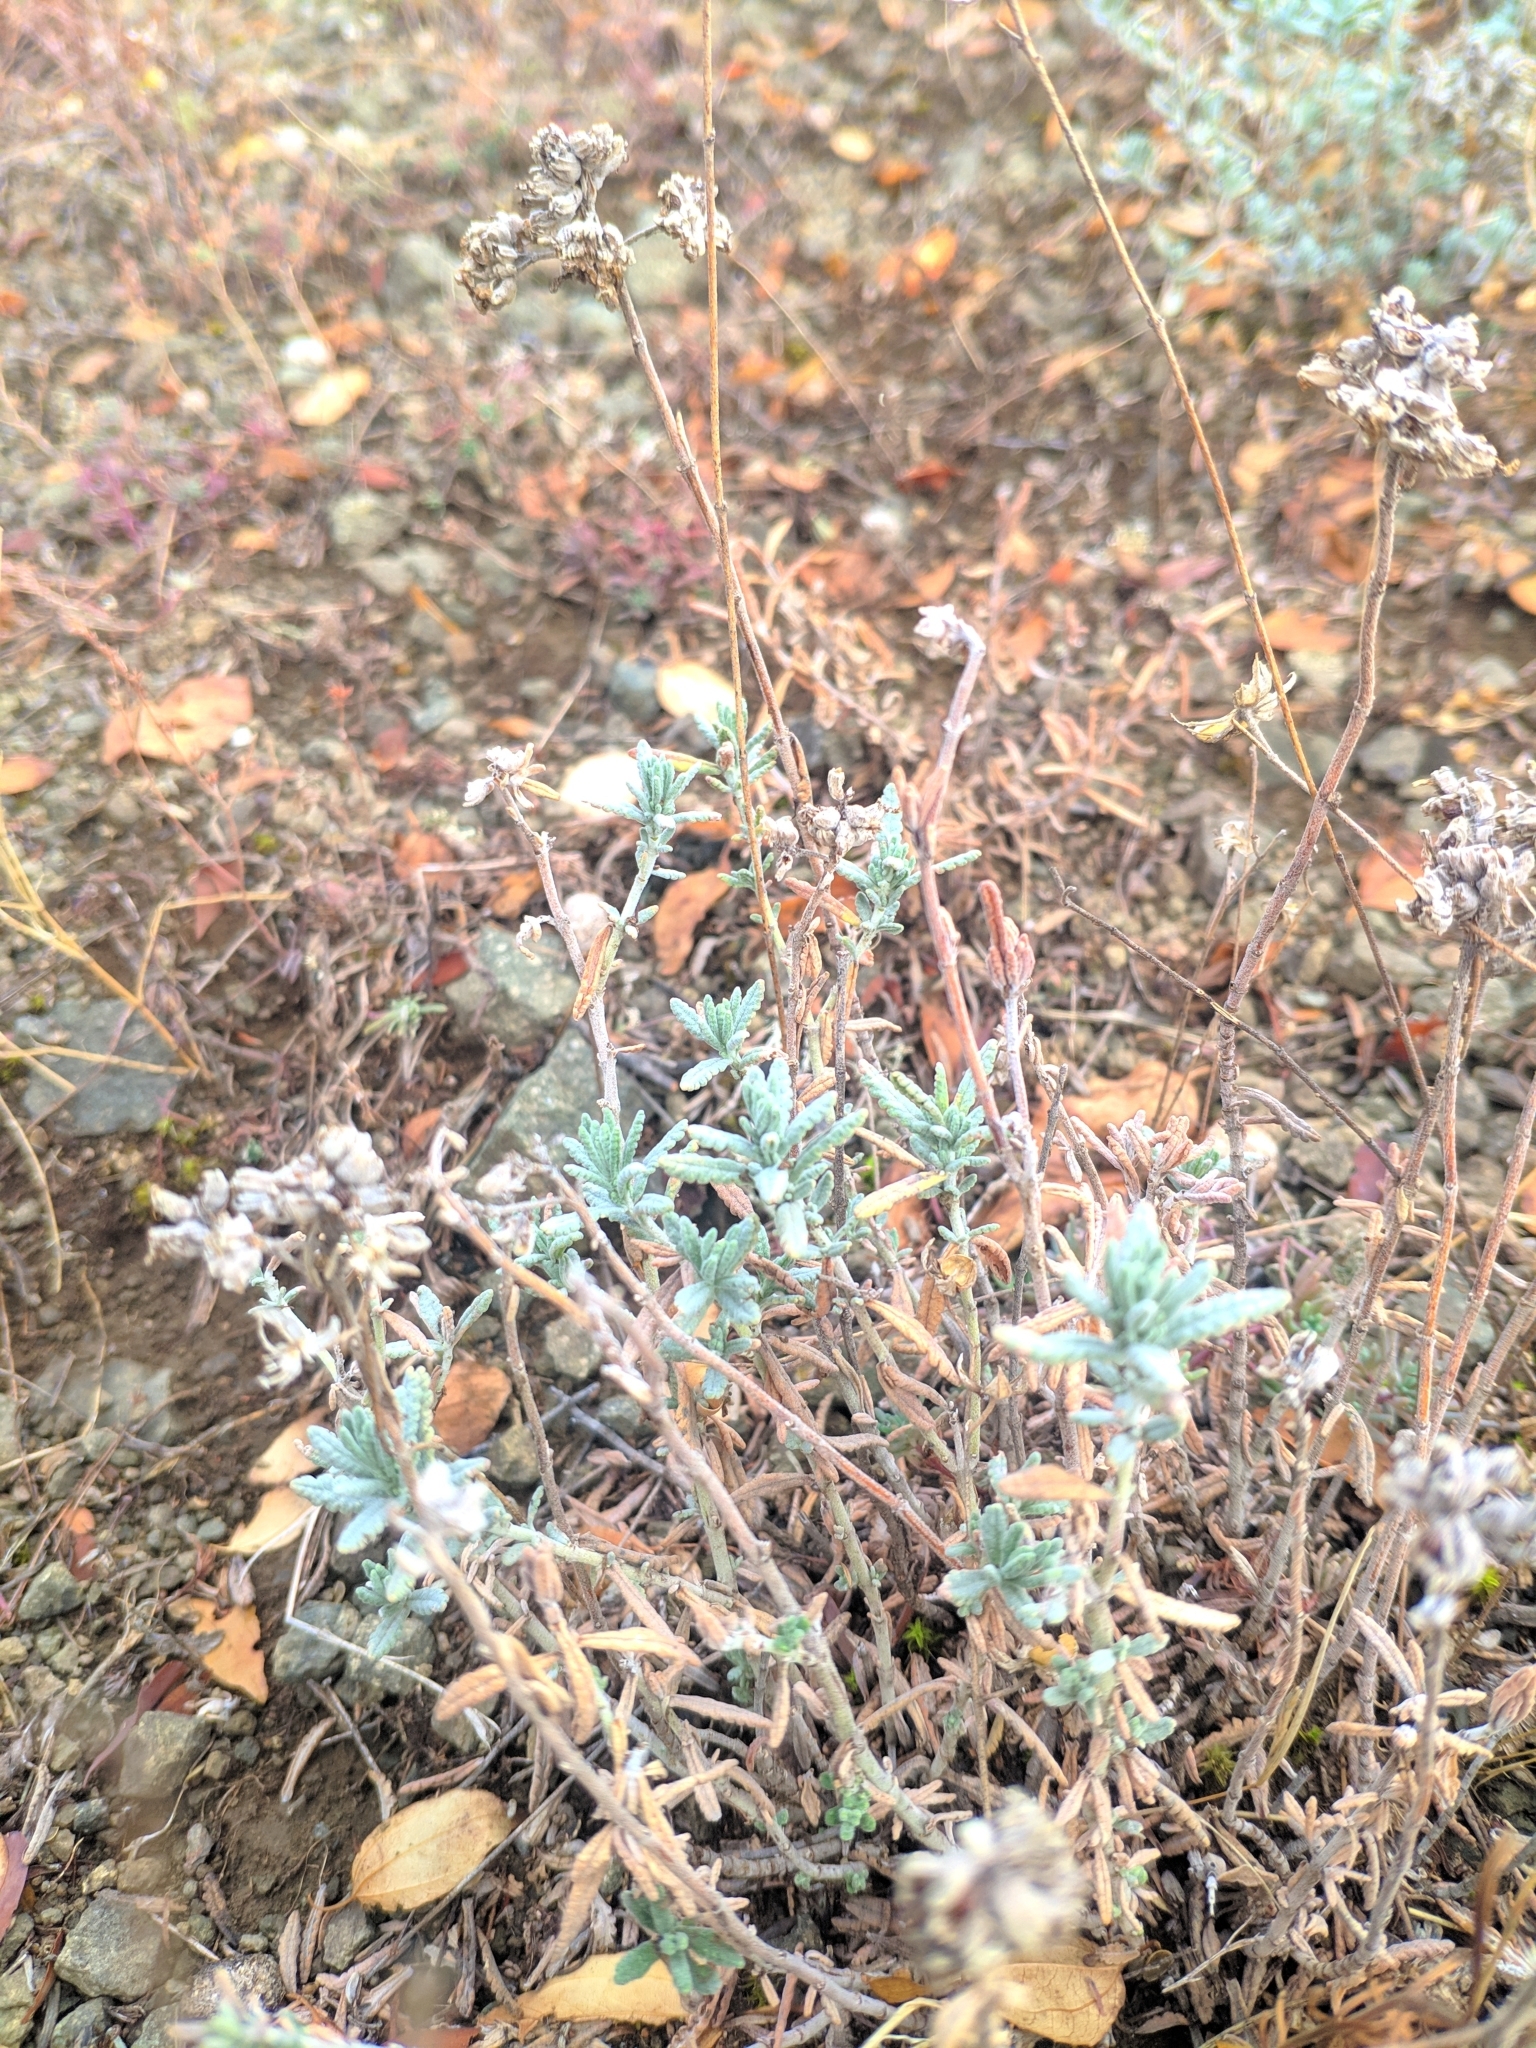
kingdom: Plantae
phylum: Tracheophyta
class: Magnoliopsida
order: Lamiales
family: Lamiaceae
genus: Teucrium
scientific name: Teucrium polium
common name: Poley
